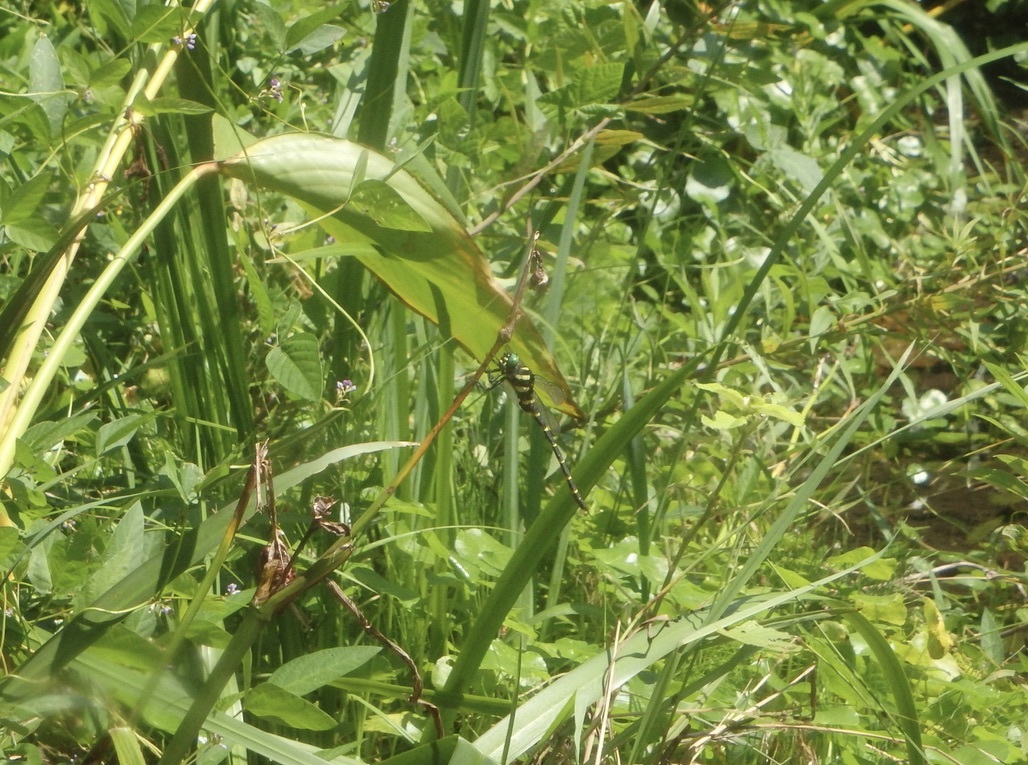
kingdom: Animalia
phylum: Arthropoda
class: Insecta
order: Odonata
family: Cordulegastridae
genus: Anotogaster
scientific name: Anotogaster sieboldii
